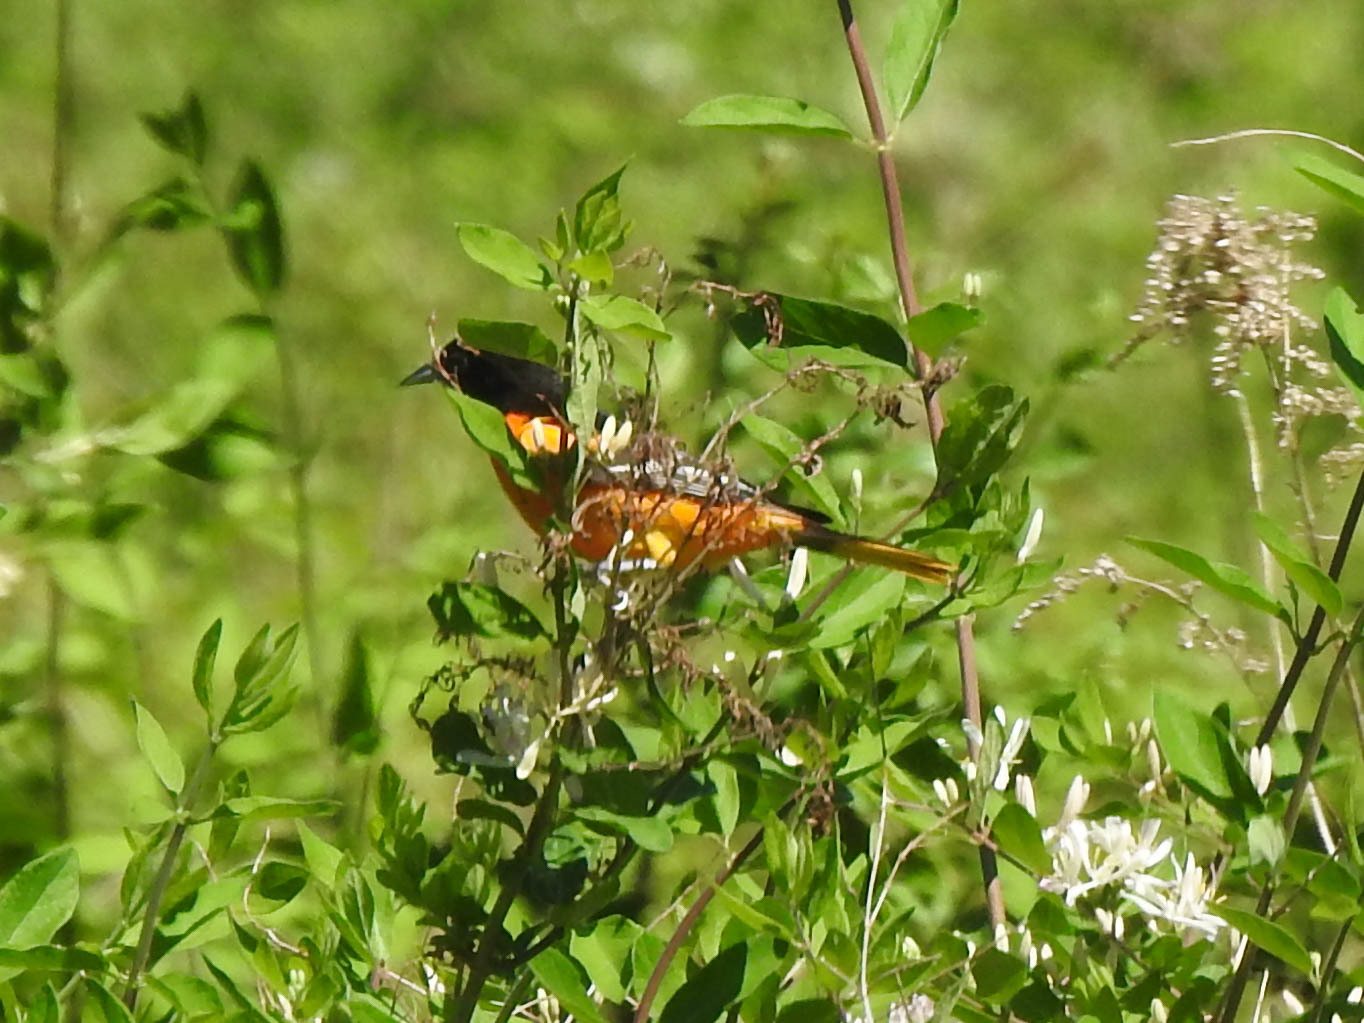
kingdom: Animalia
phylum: Chordata
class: Aves
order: Passeriformes
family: Icteridae
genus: Icterus
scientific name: Icterus galbula
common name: Baltimore oriole
